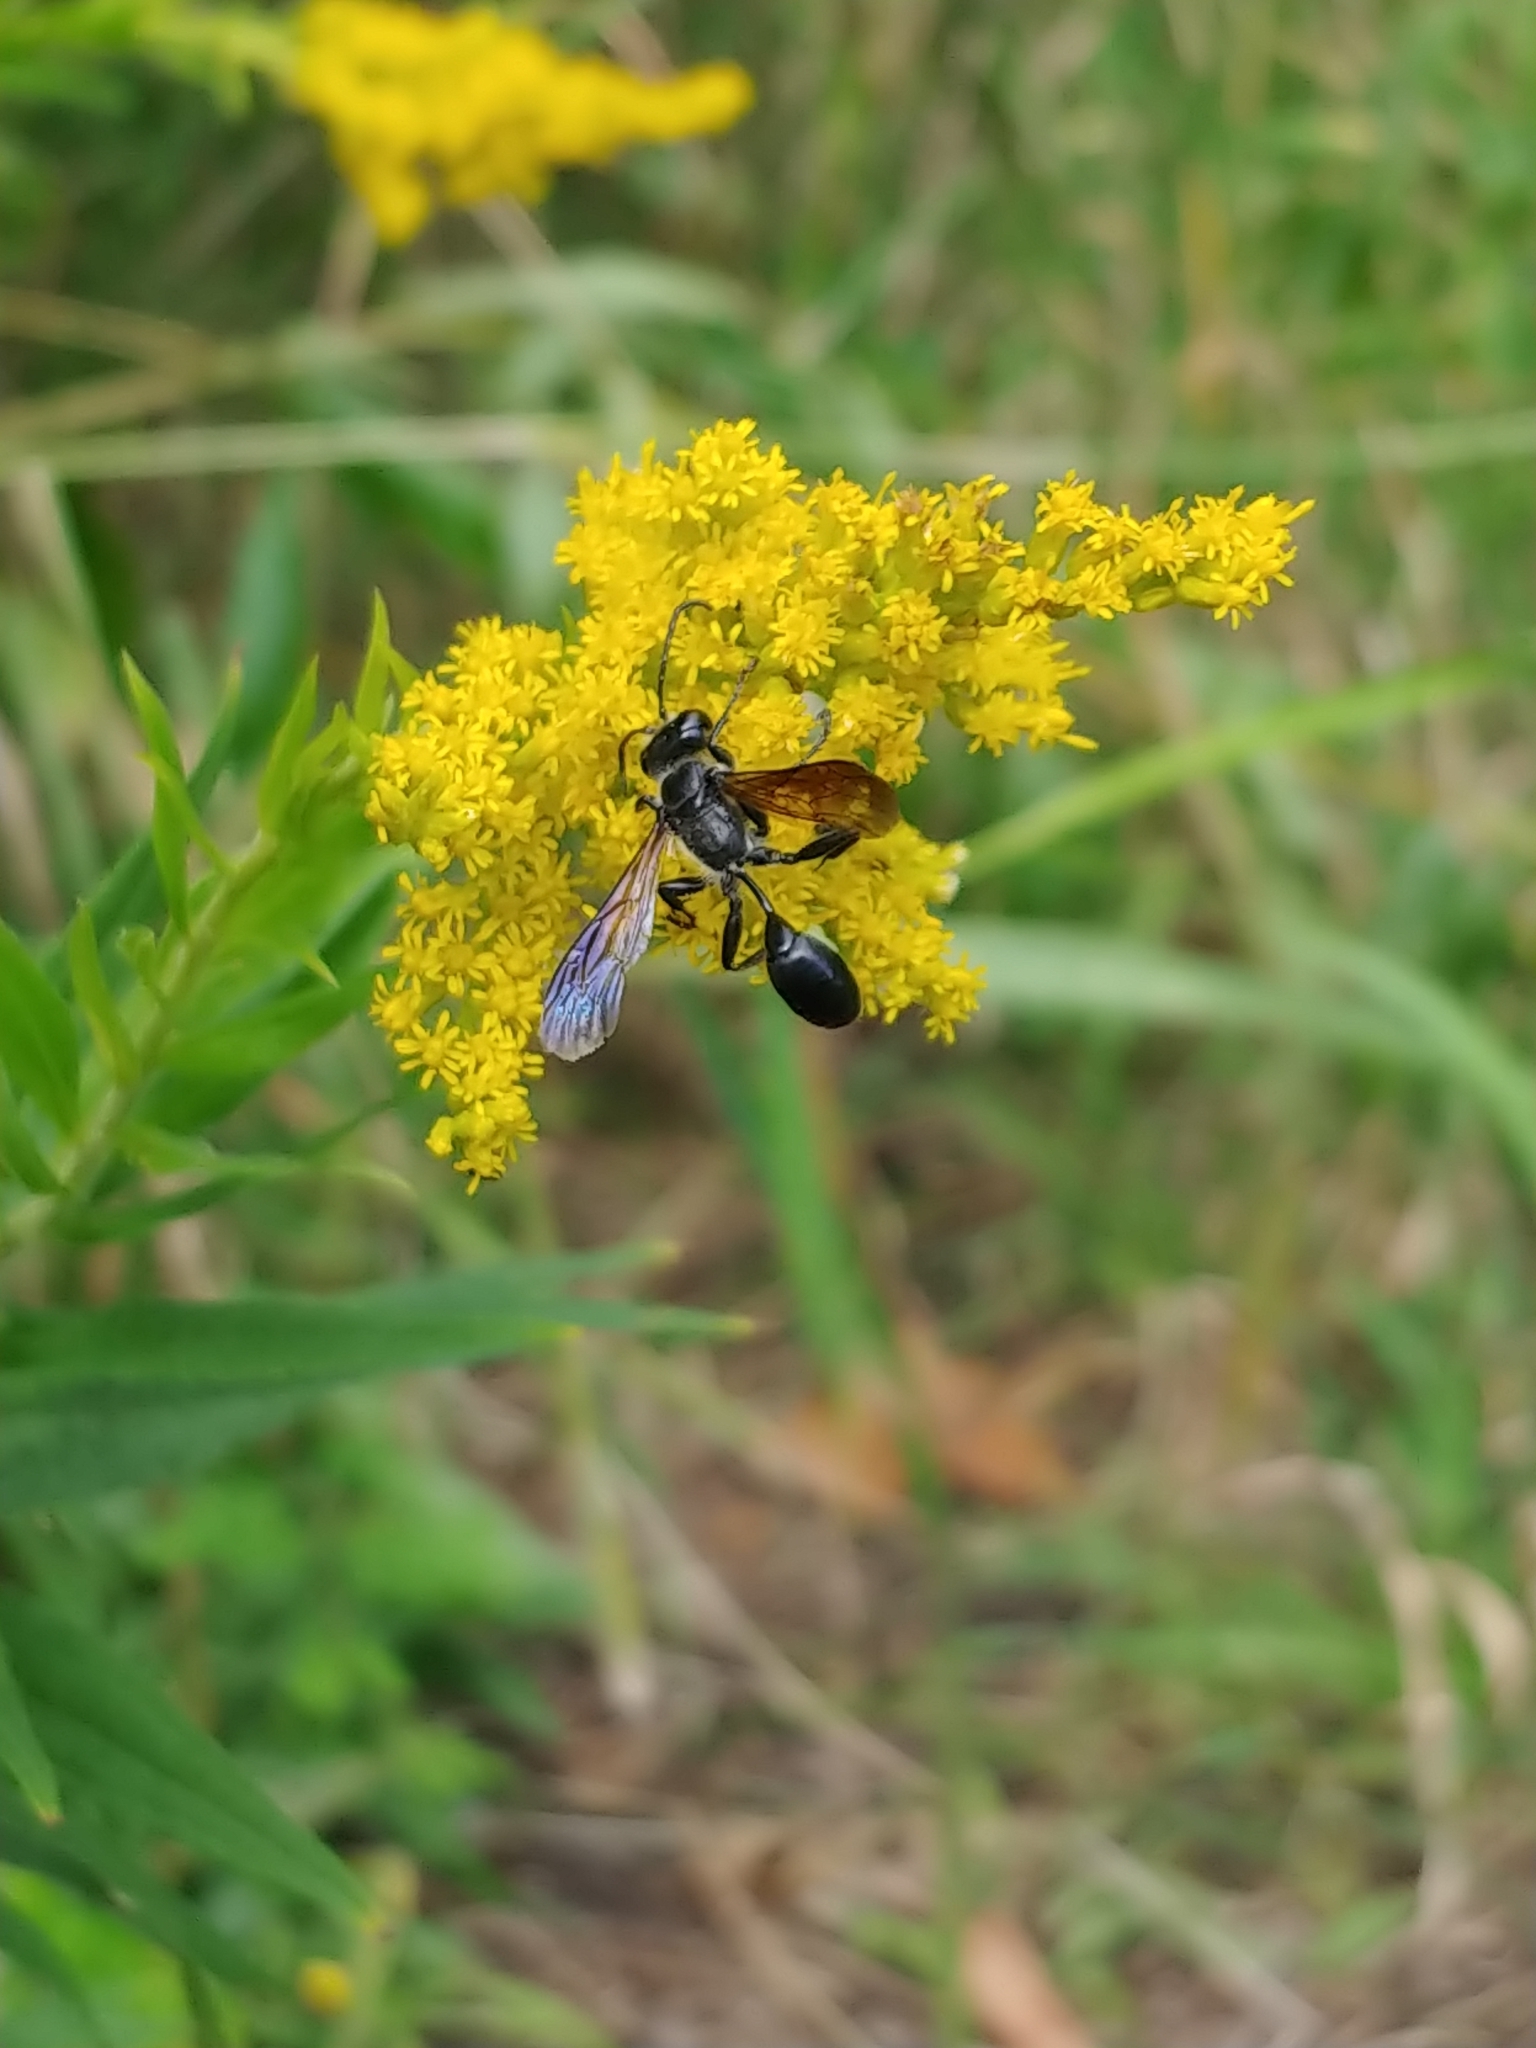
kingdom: Animalia
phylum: Arthropoda
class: Insecta
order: Hymenoptera
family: Sphecidae
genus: Isodontia
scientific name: Isodontia mexicana
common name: Mud dauber
